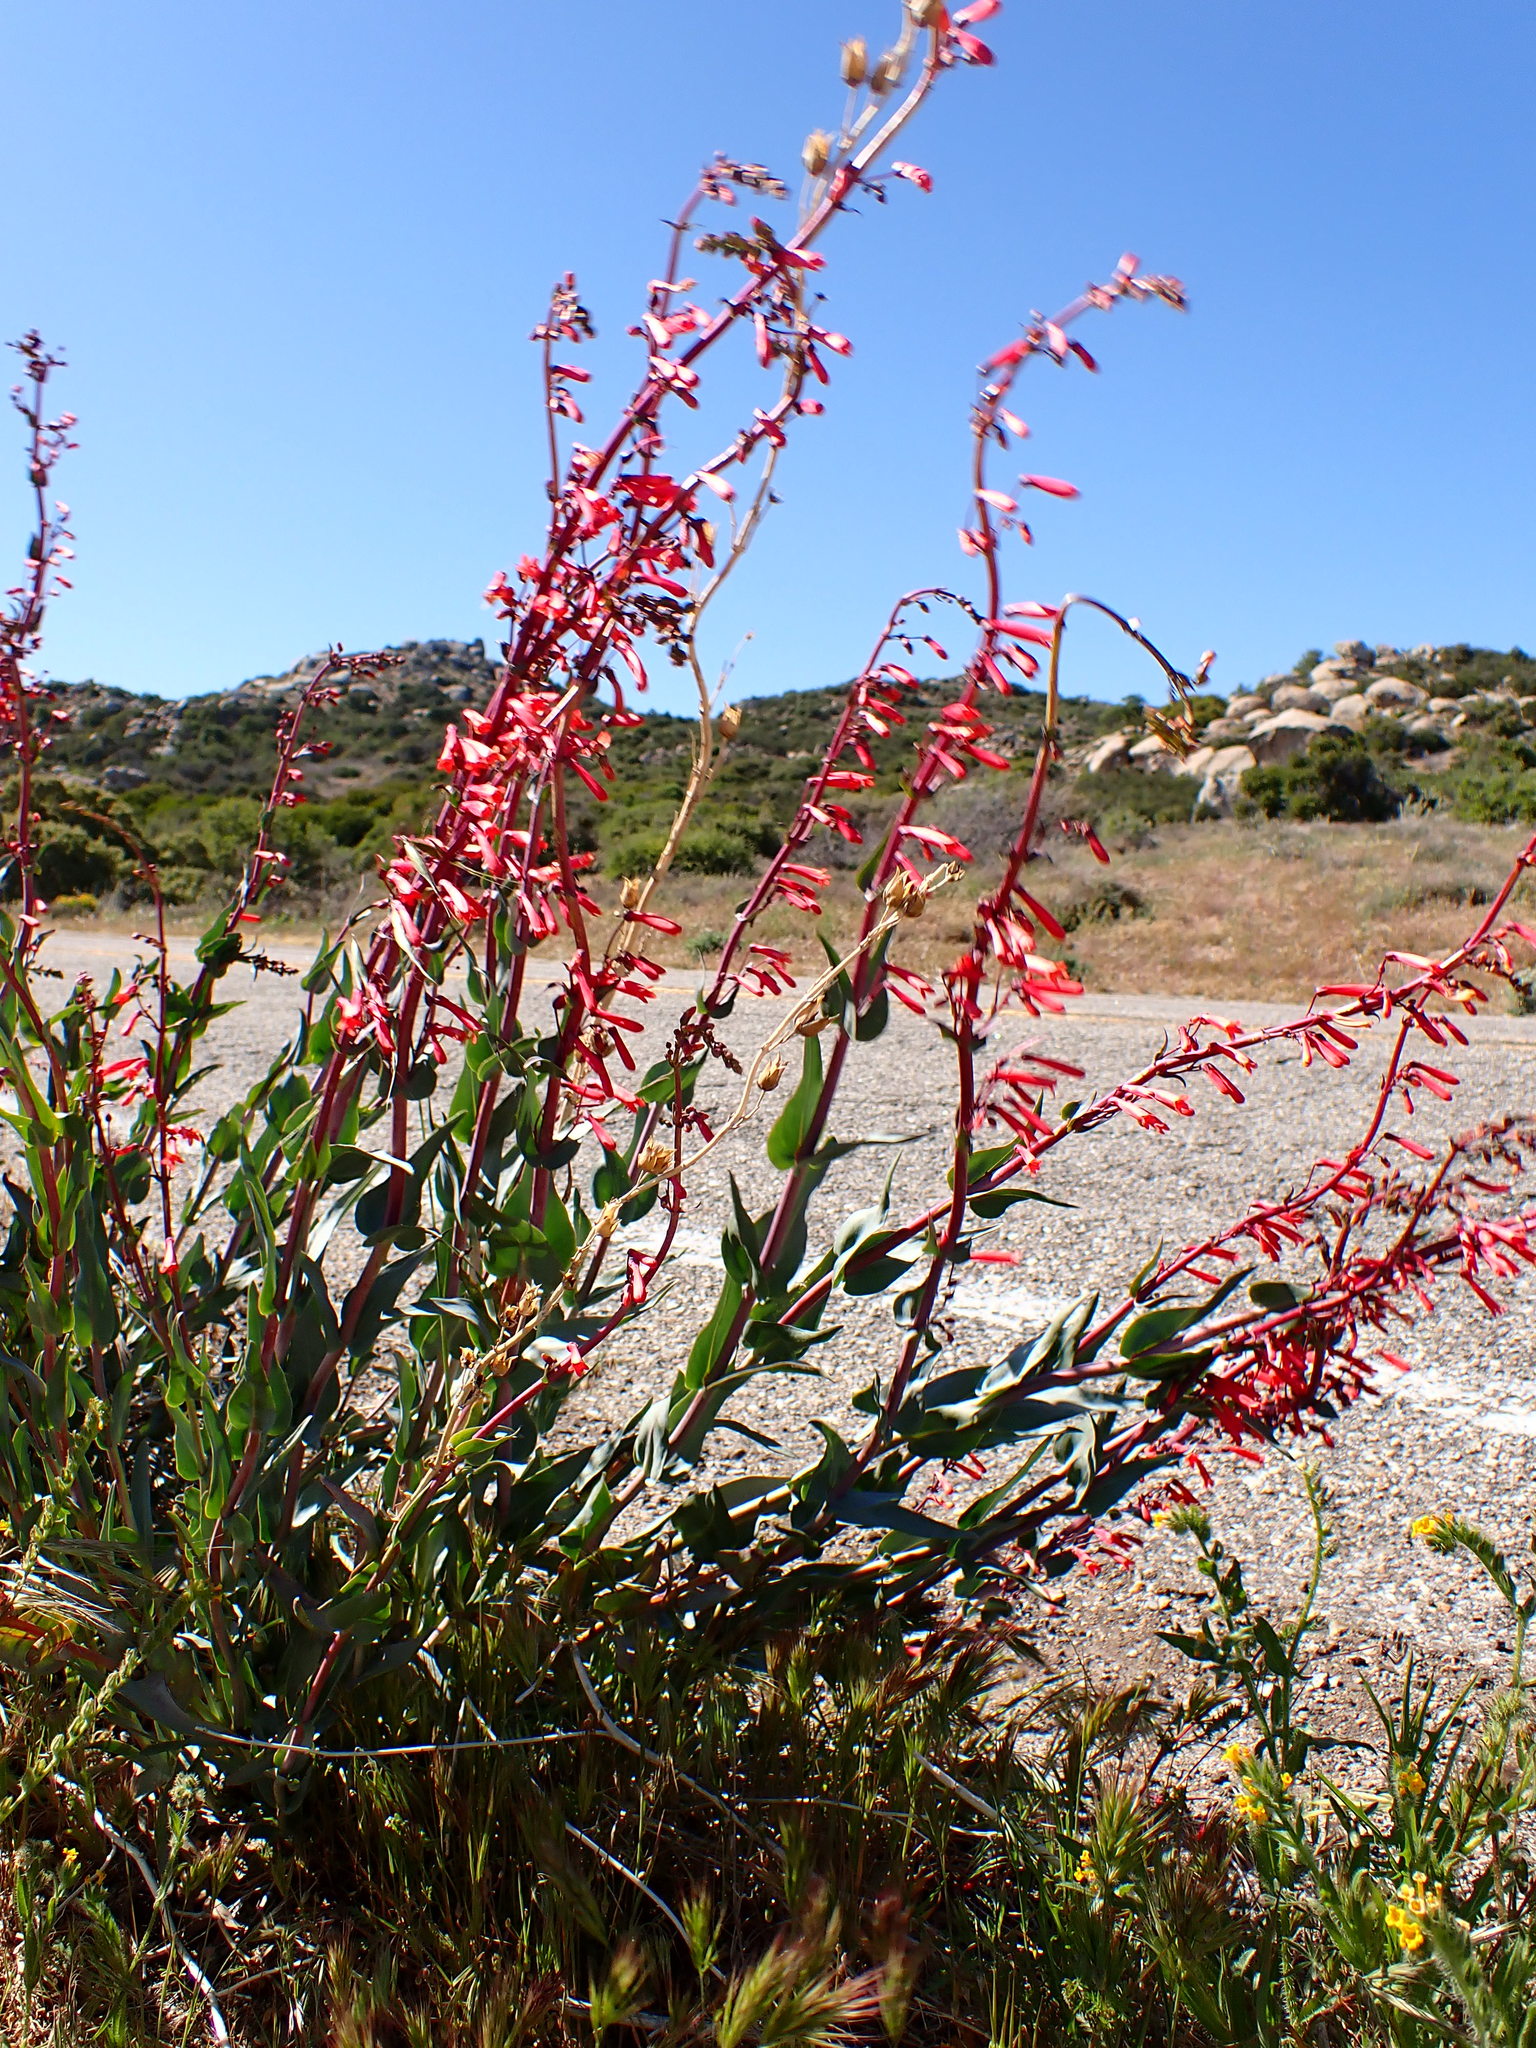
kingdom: Plantae
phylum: Tracheophyta
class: Magnoliopsida
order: Lamiales
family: Plantaginaceae
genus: Penstemon
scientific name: Penstemon centranthifolius
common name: Scarlet bugler
